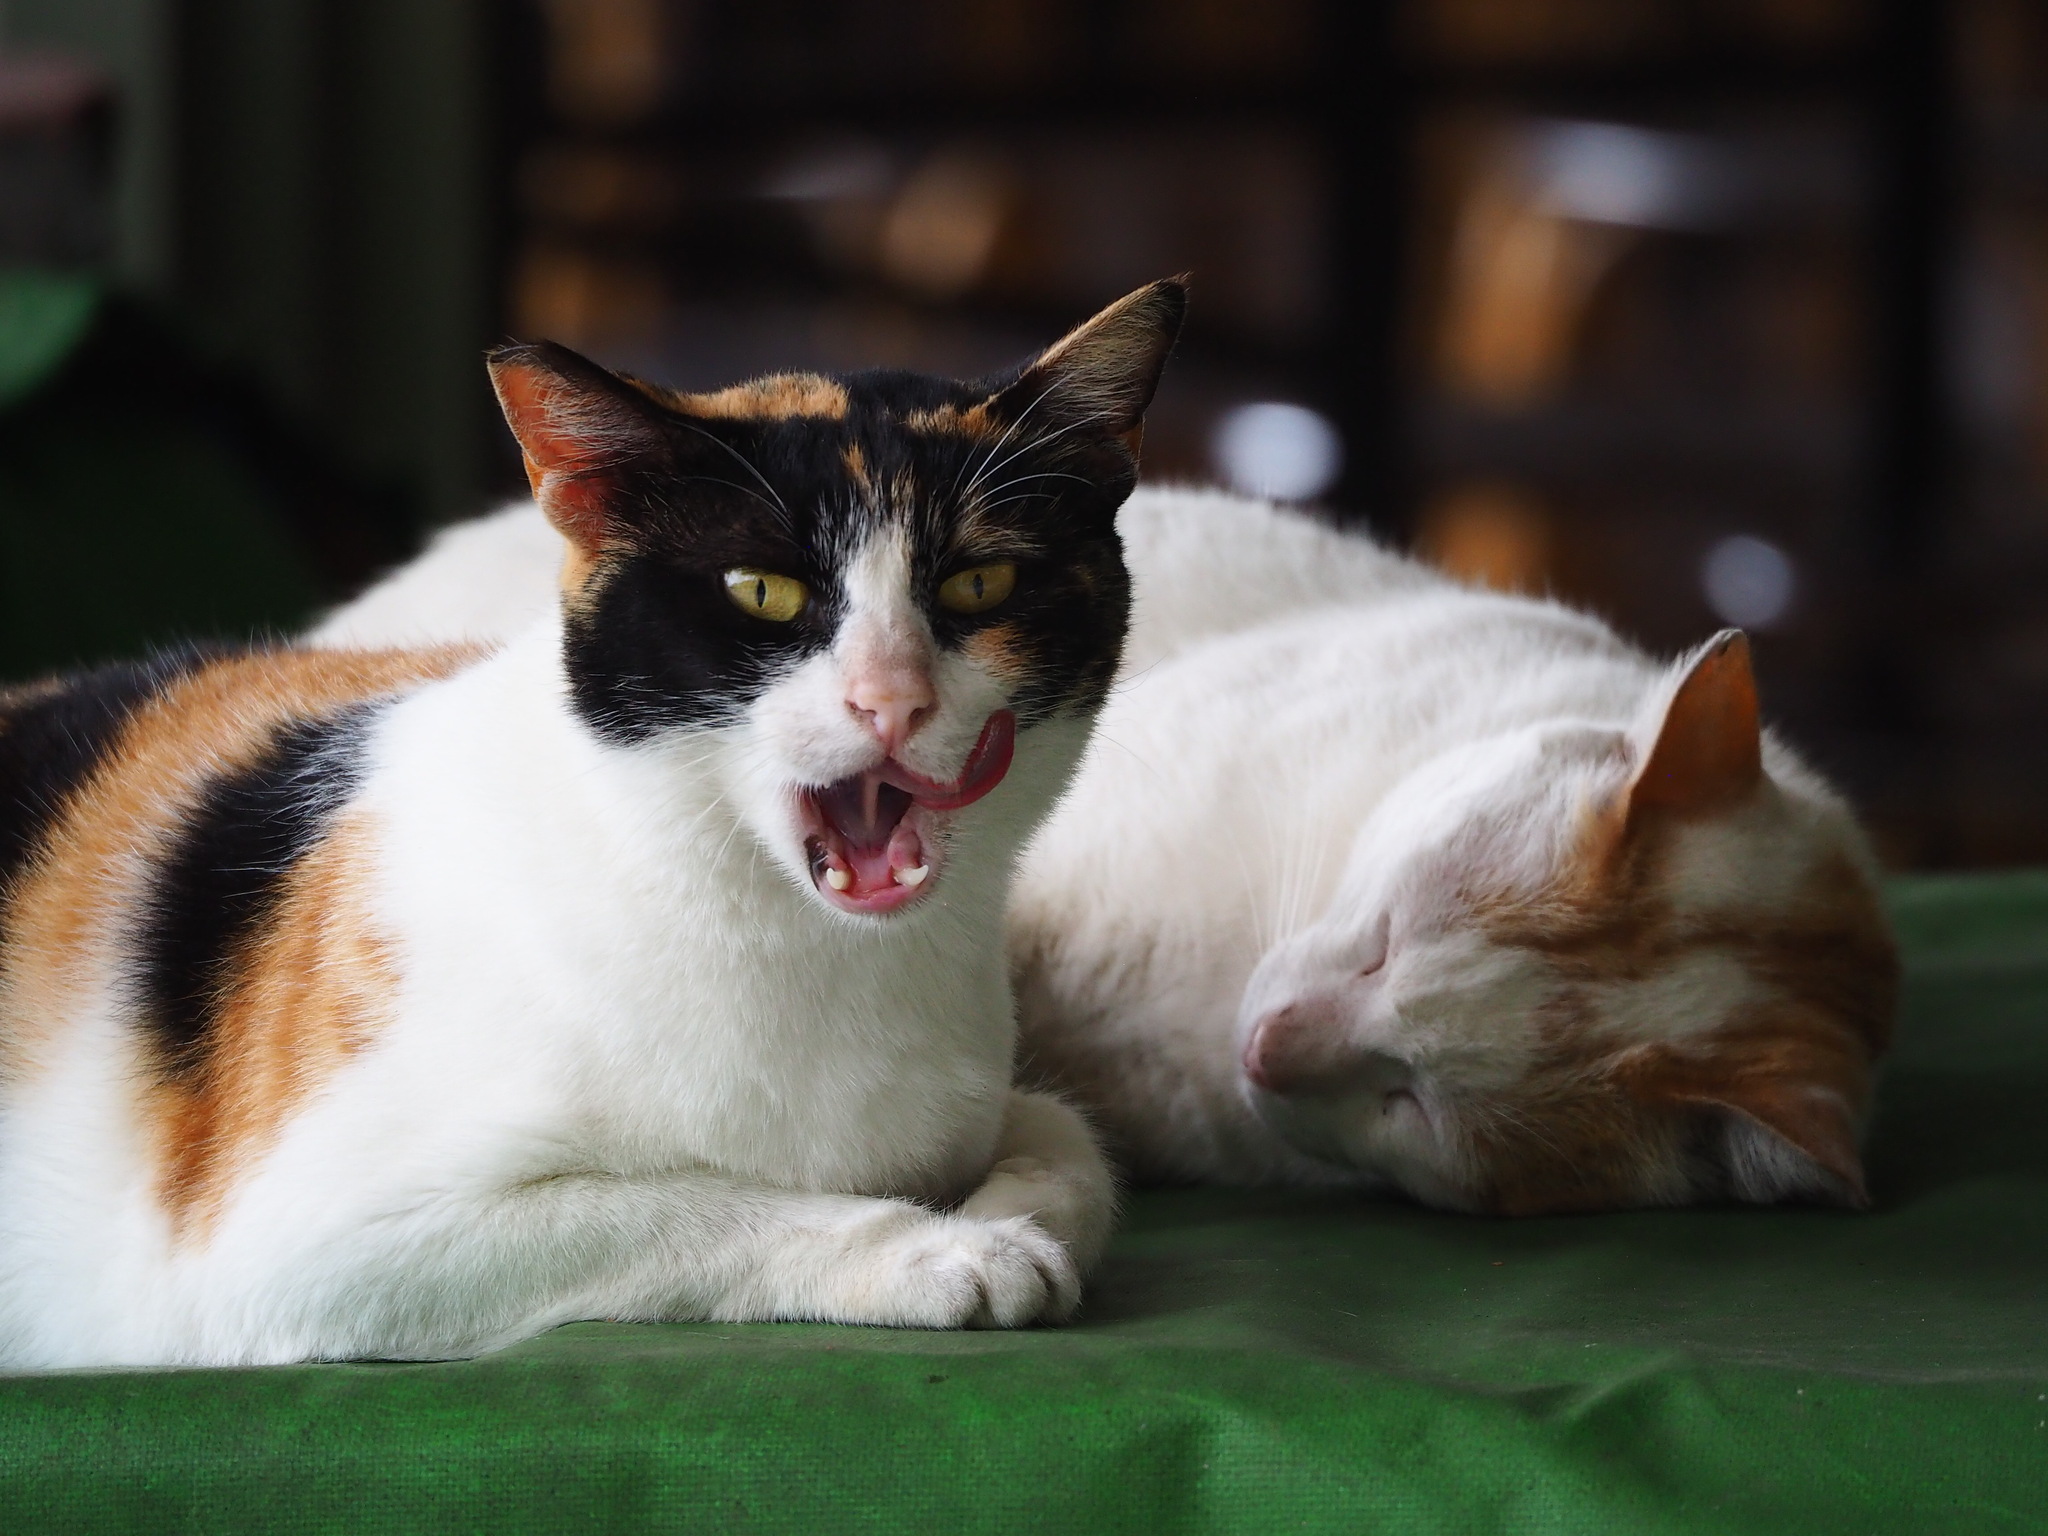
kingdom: Animalia
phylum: Chordata
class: Mammalia
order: Carnivora
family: Felidae
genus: Felis
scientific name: Felis catus
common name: Domestic cat
